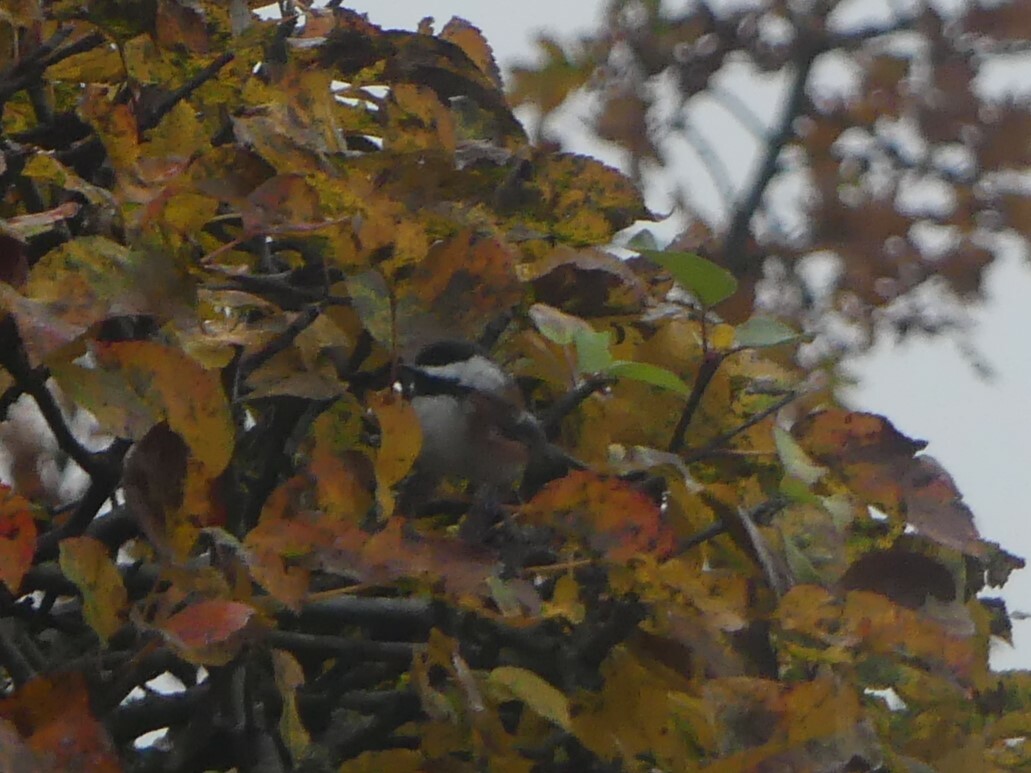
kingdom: Animalia
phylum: Chordata
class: Aves
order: Passeriformes
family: Paridae
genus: Poecile
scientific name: Poecile rufescens
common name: Chestnut-backed chickadee
